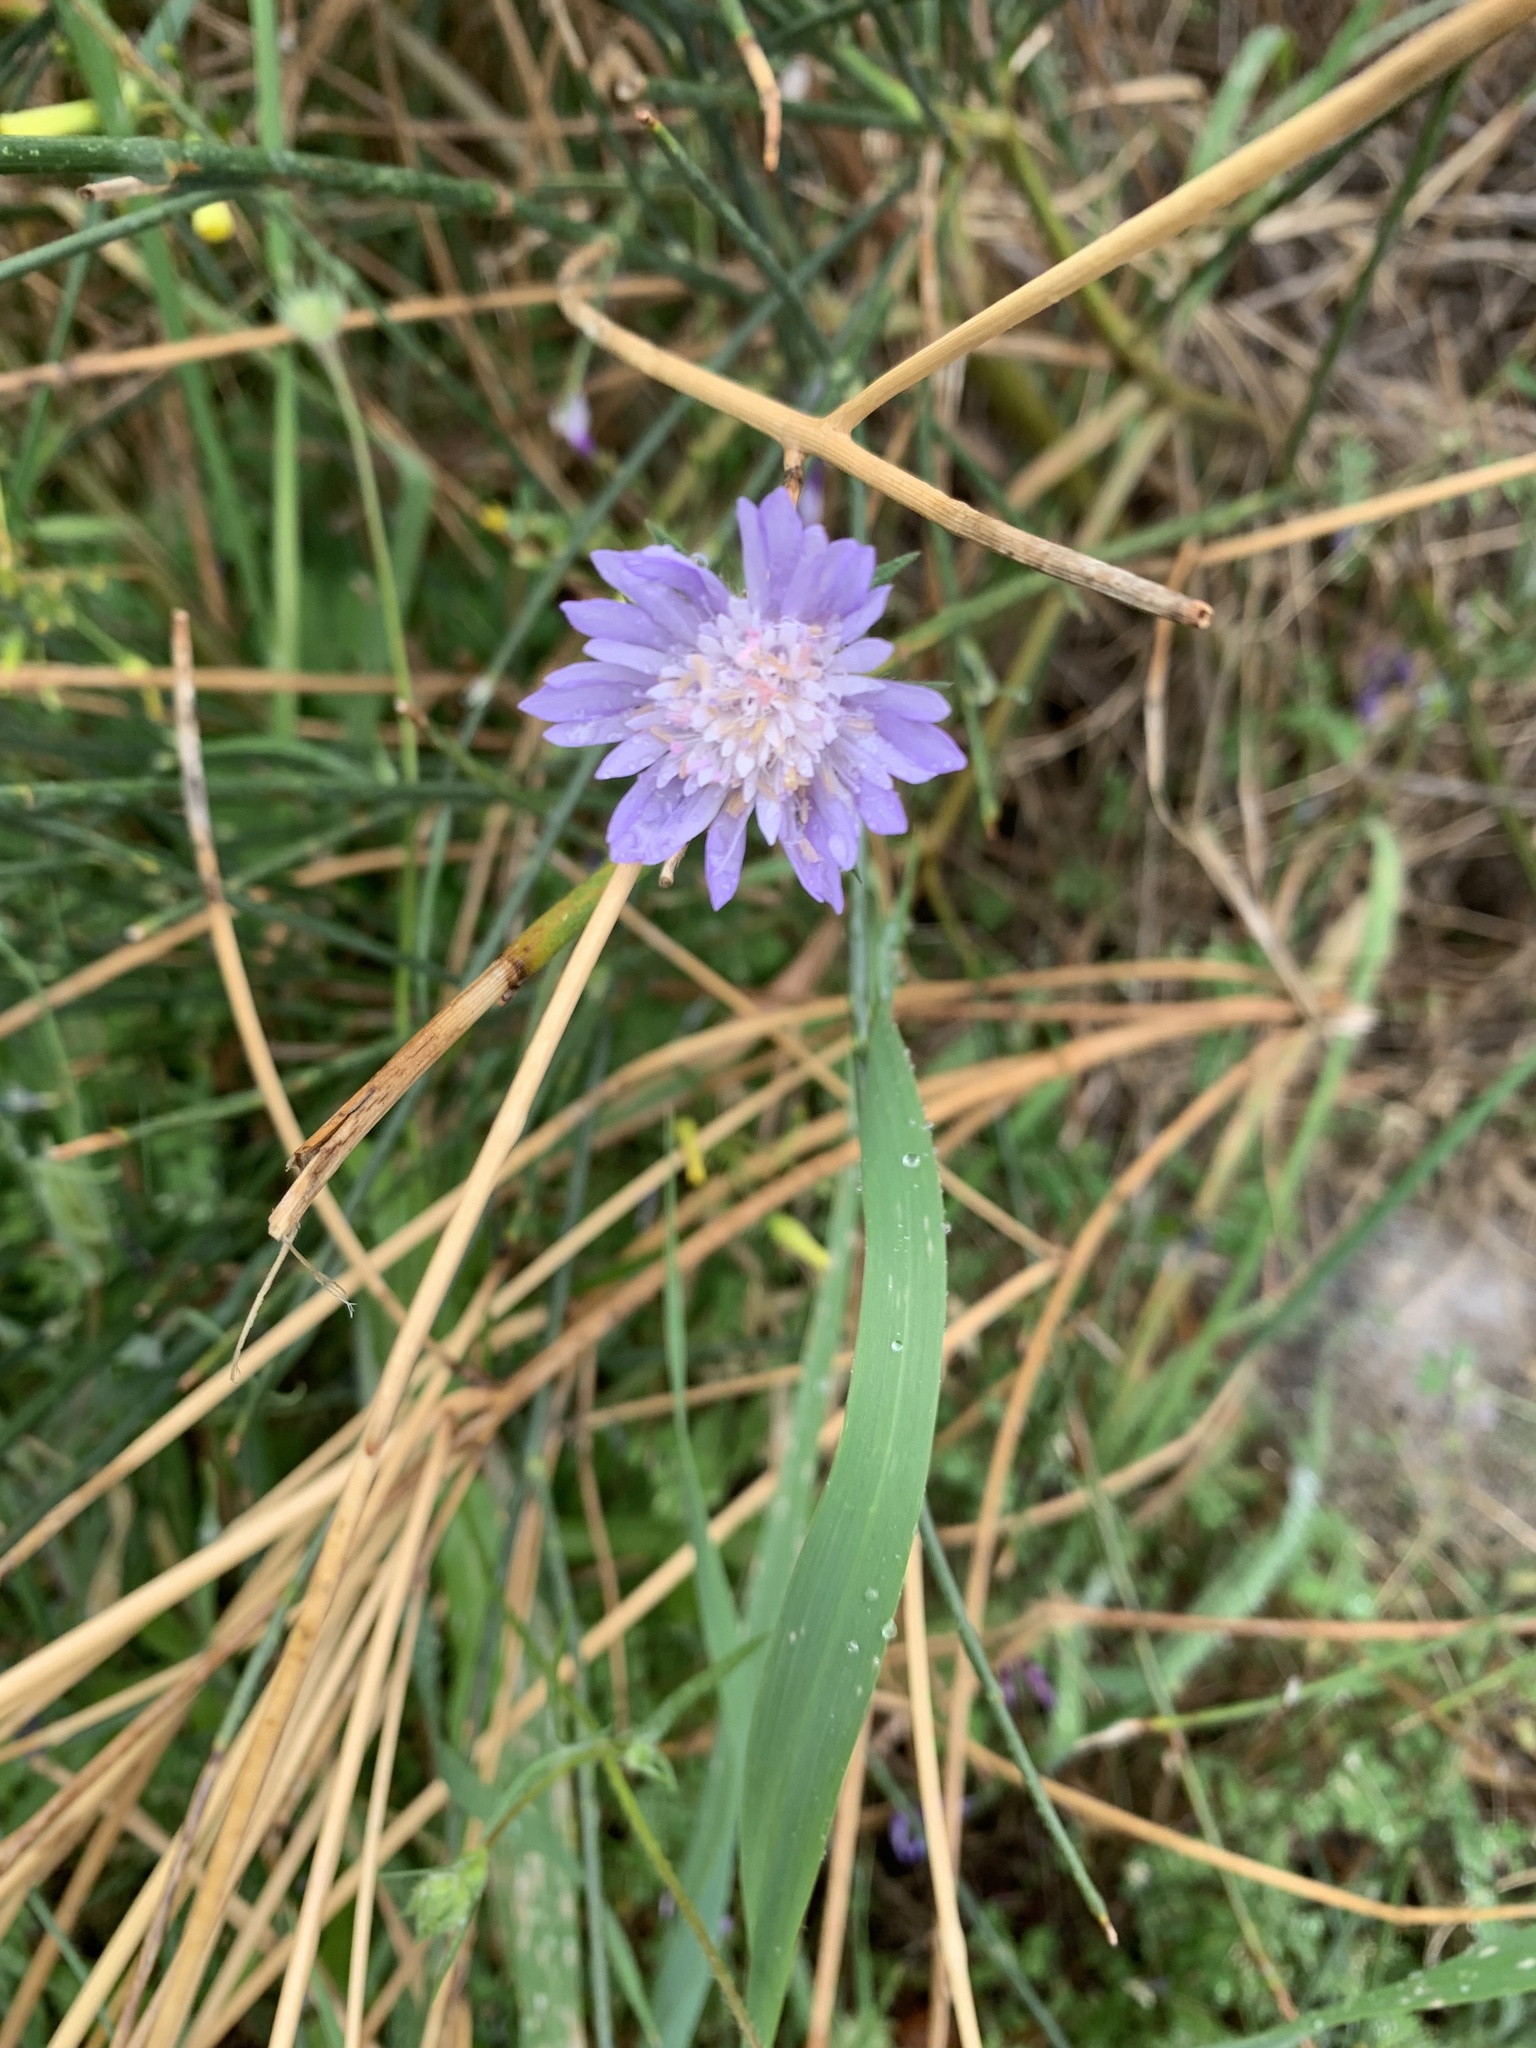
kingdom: Plantae
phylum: Tracheophyta
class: Magnoliopsida
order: Dipsacales
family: Caprifoliaceae
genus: Knautia
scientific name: Knautia integrifolia
